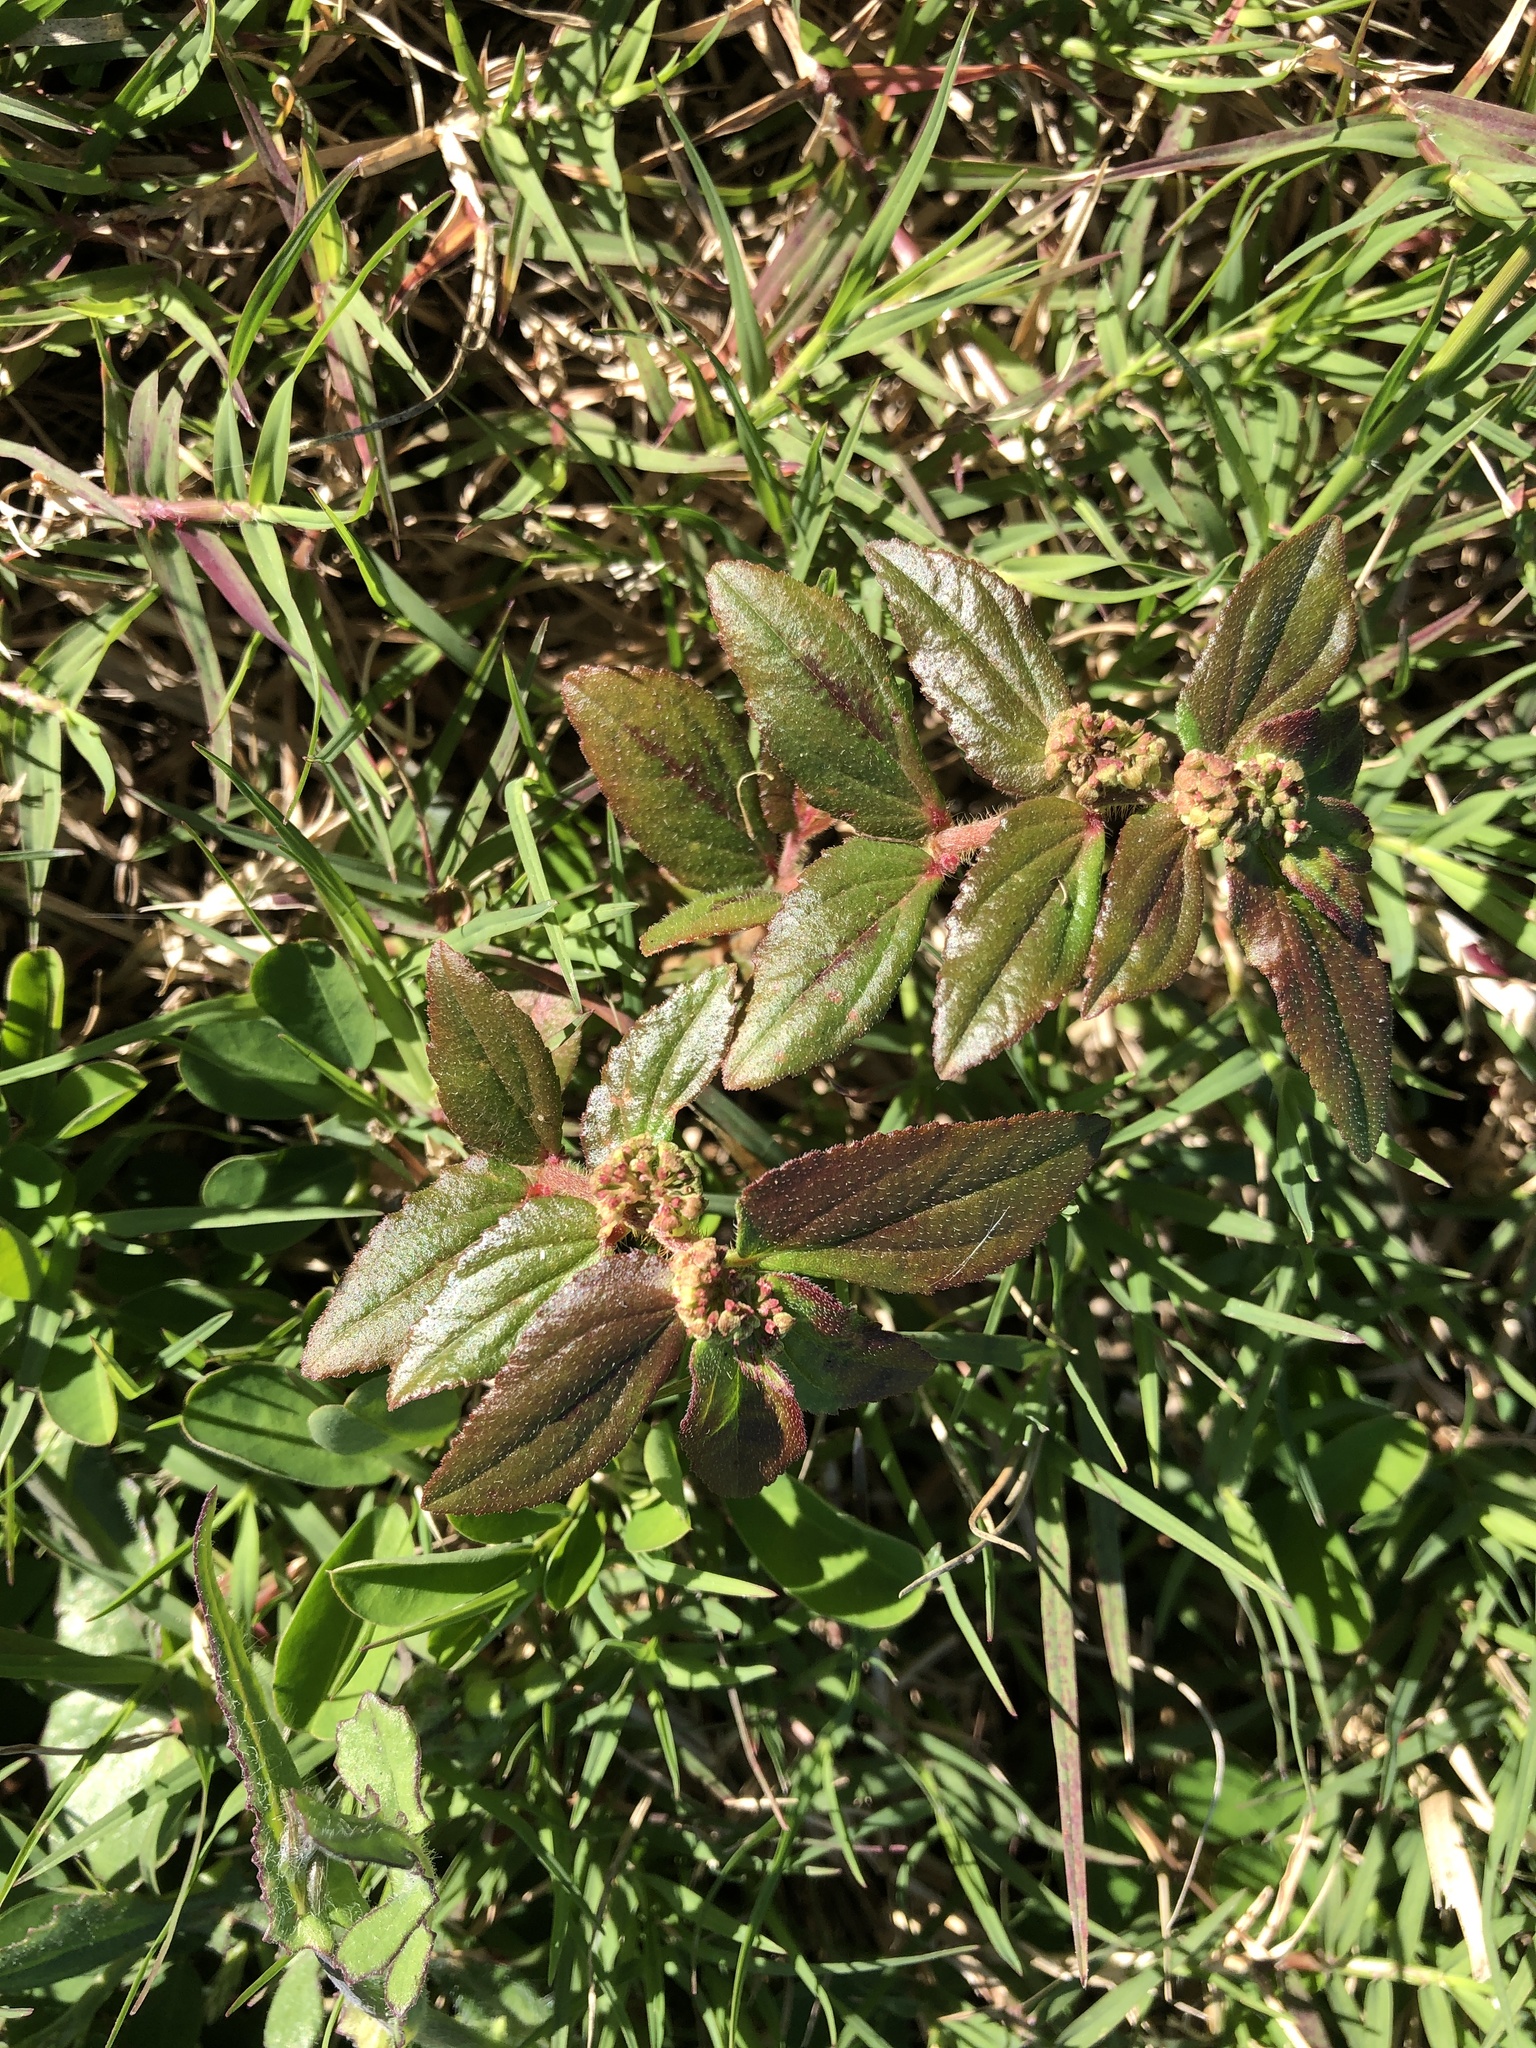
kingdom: Plantae
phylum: Tracheophyta
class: Magnoliopsida
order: Malpighiales
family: Euphorbiaceae
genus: Euphorbia
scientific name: Euphorbia hirta
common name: Pillpod sandmat
